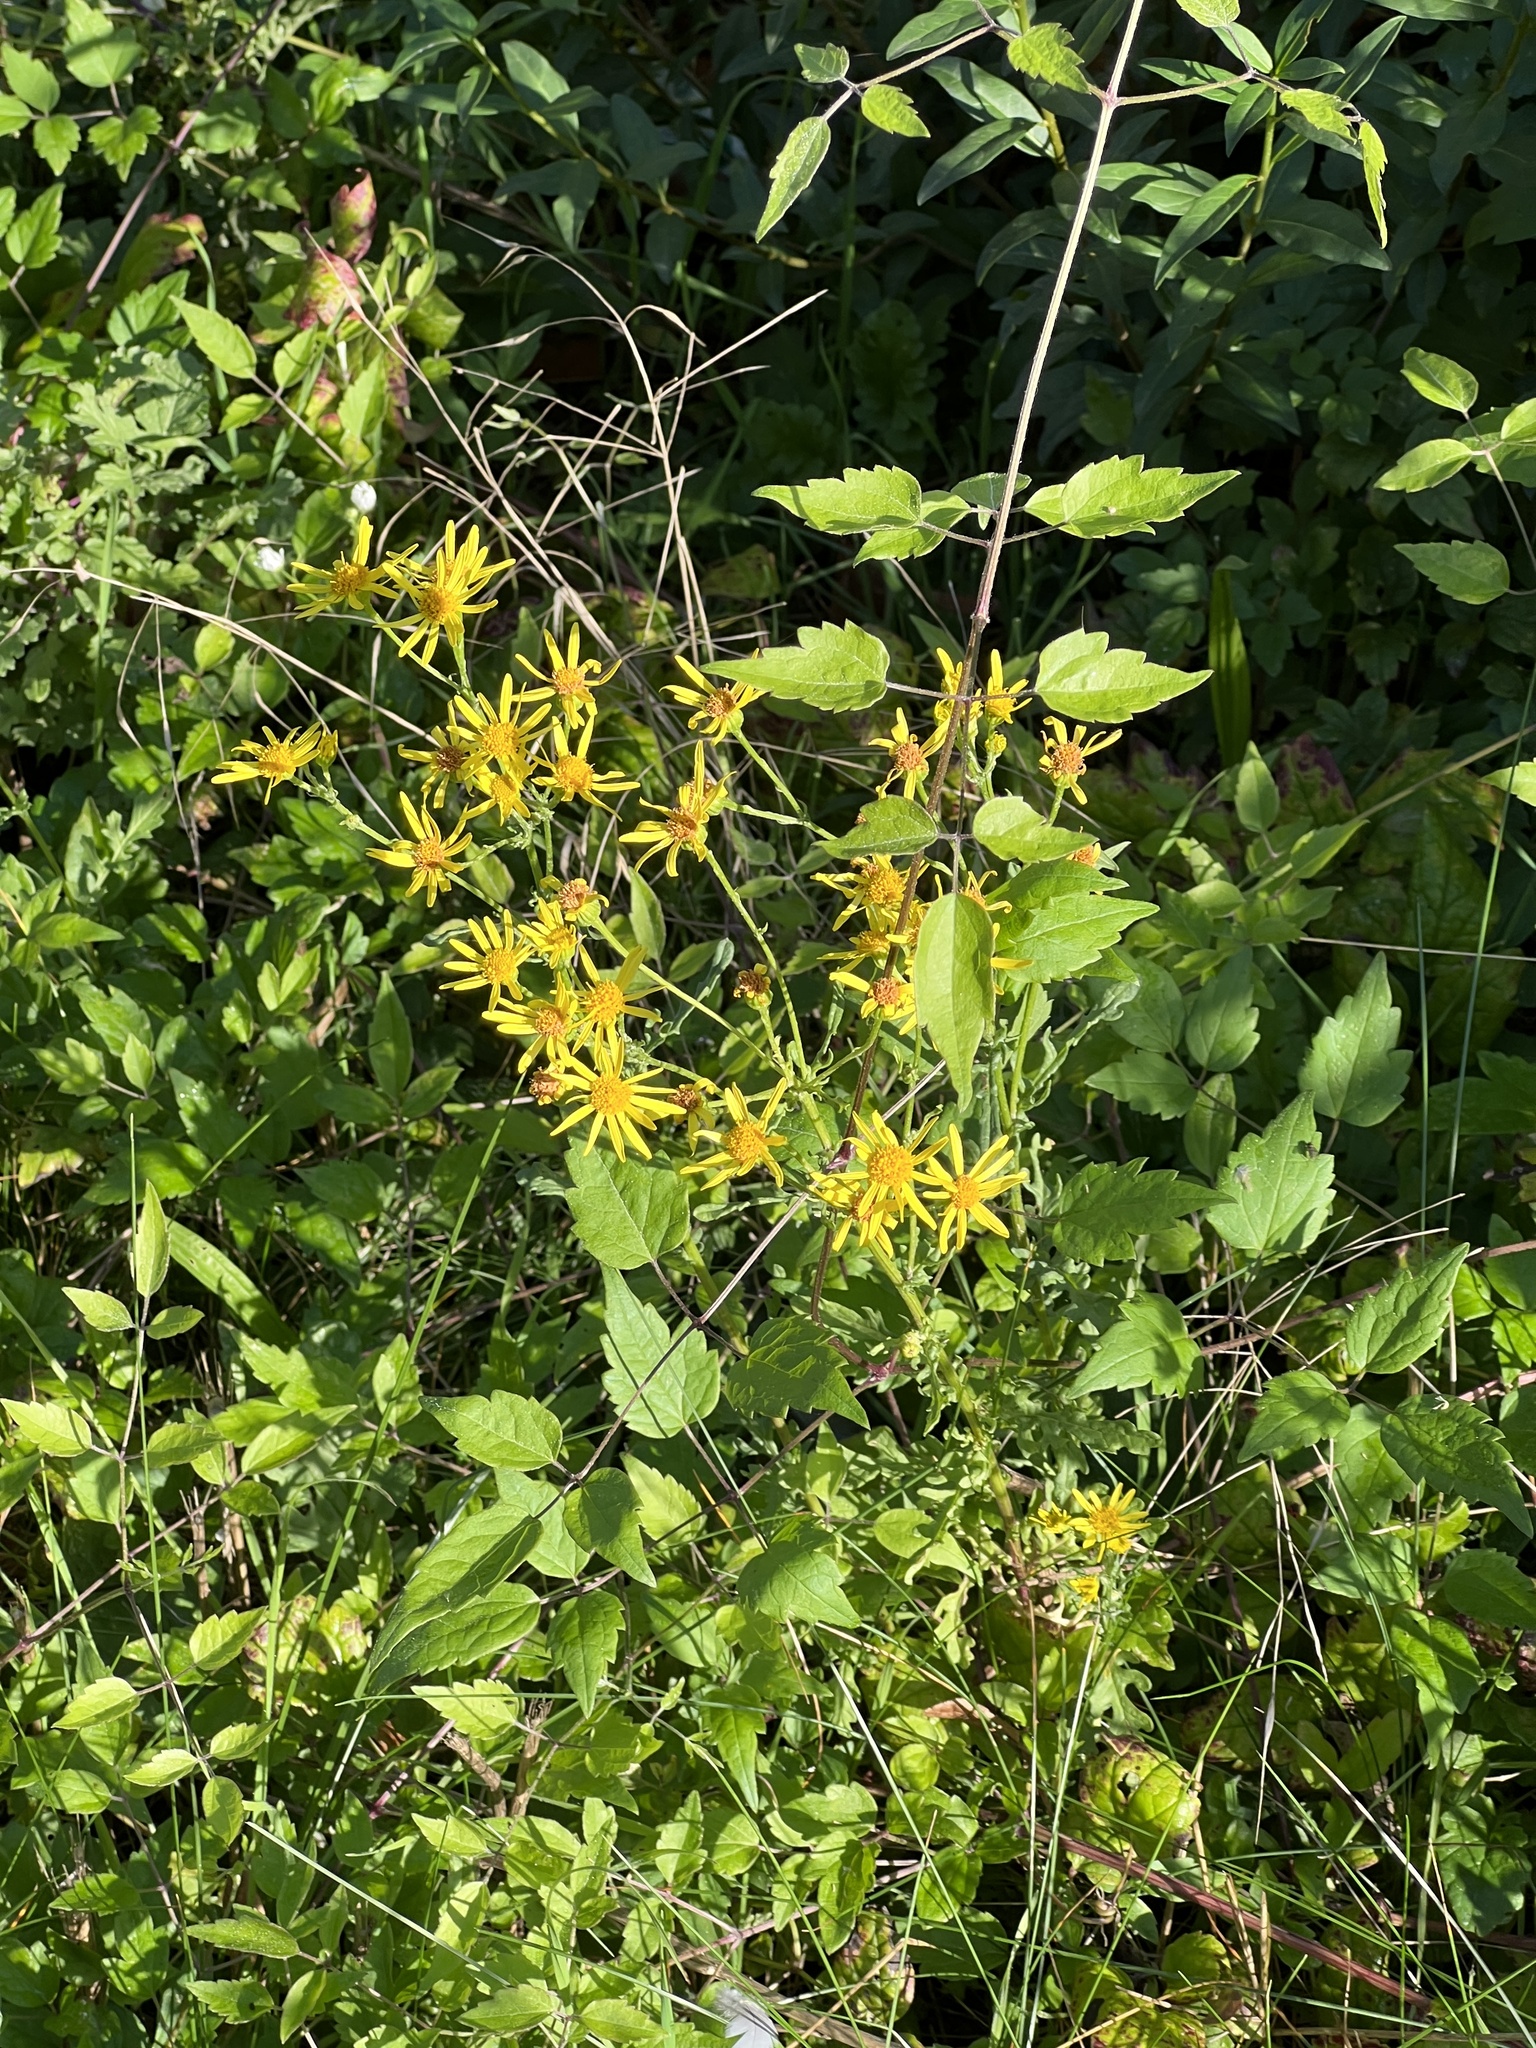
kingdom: Plantae
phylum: Tracheophyta
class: Magnoliopsida
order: Asterales
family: Asteraceae
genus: Jacobaea
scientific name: Jacobaea vulgaris
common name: Stinking willie
